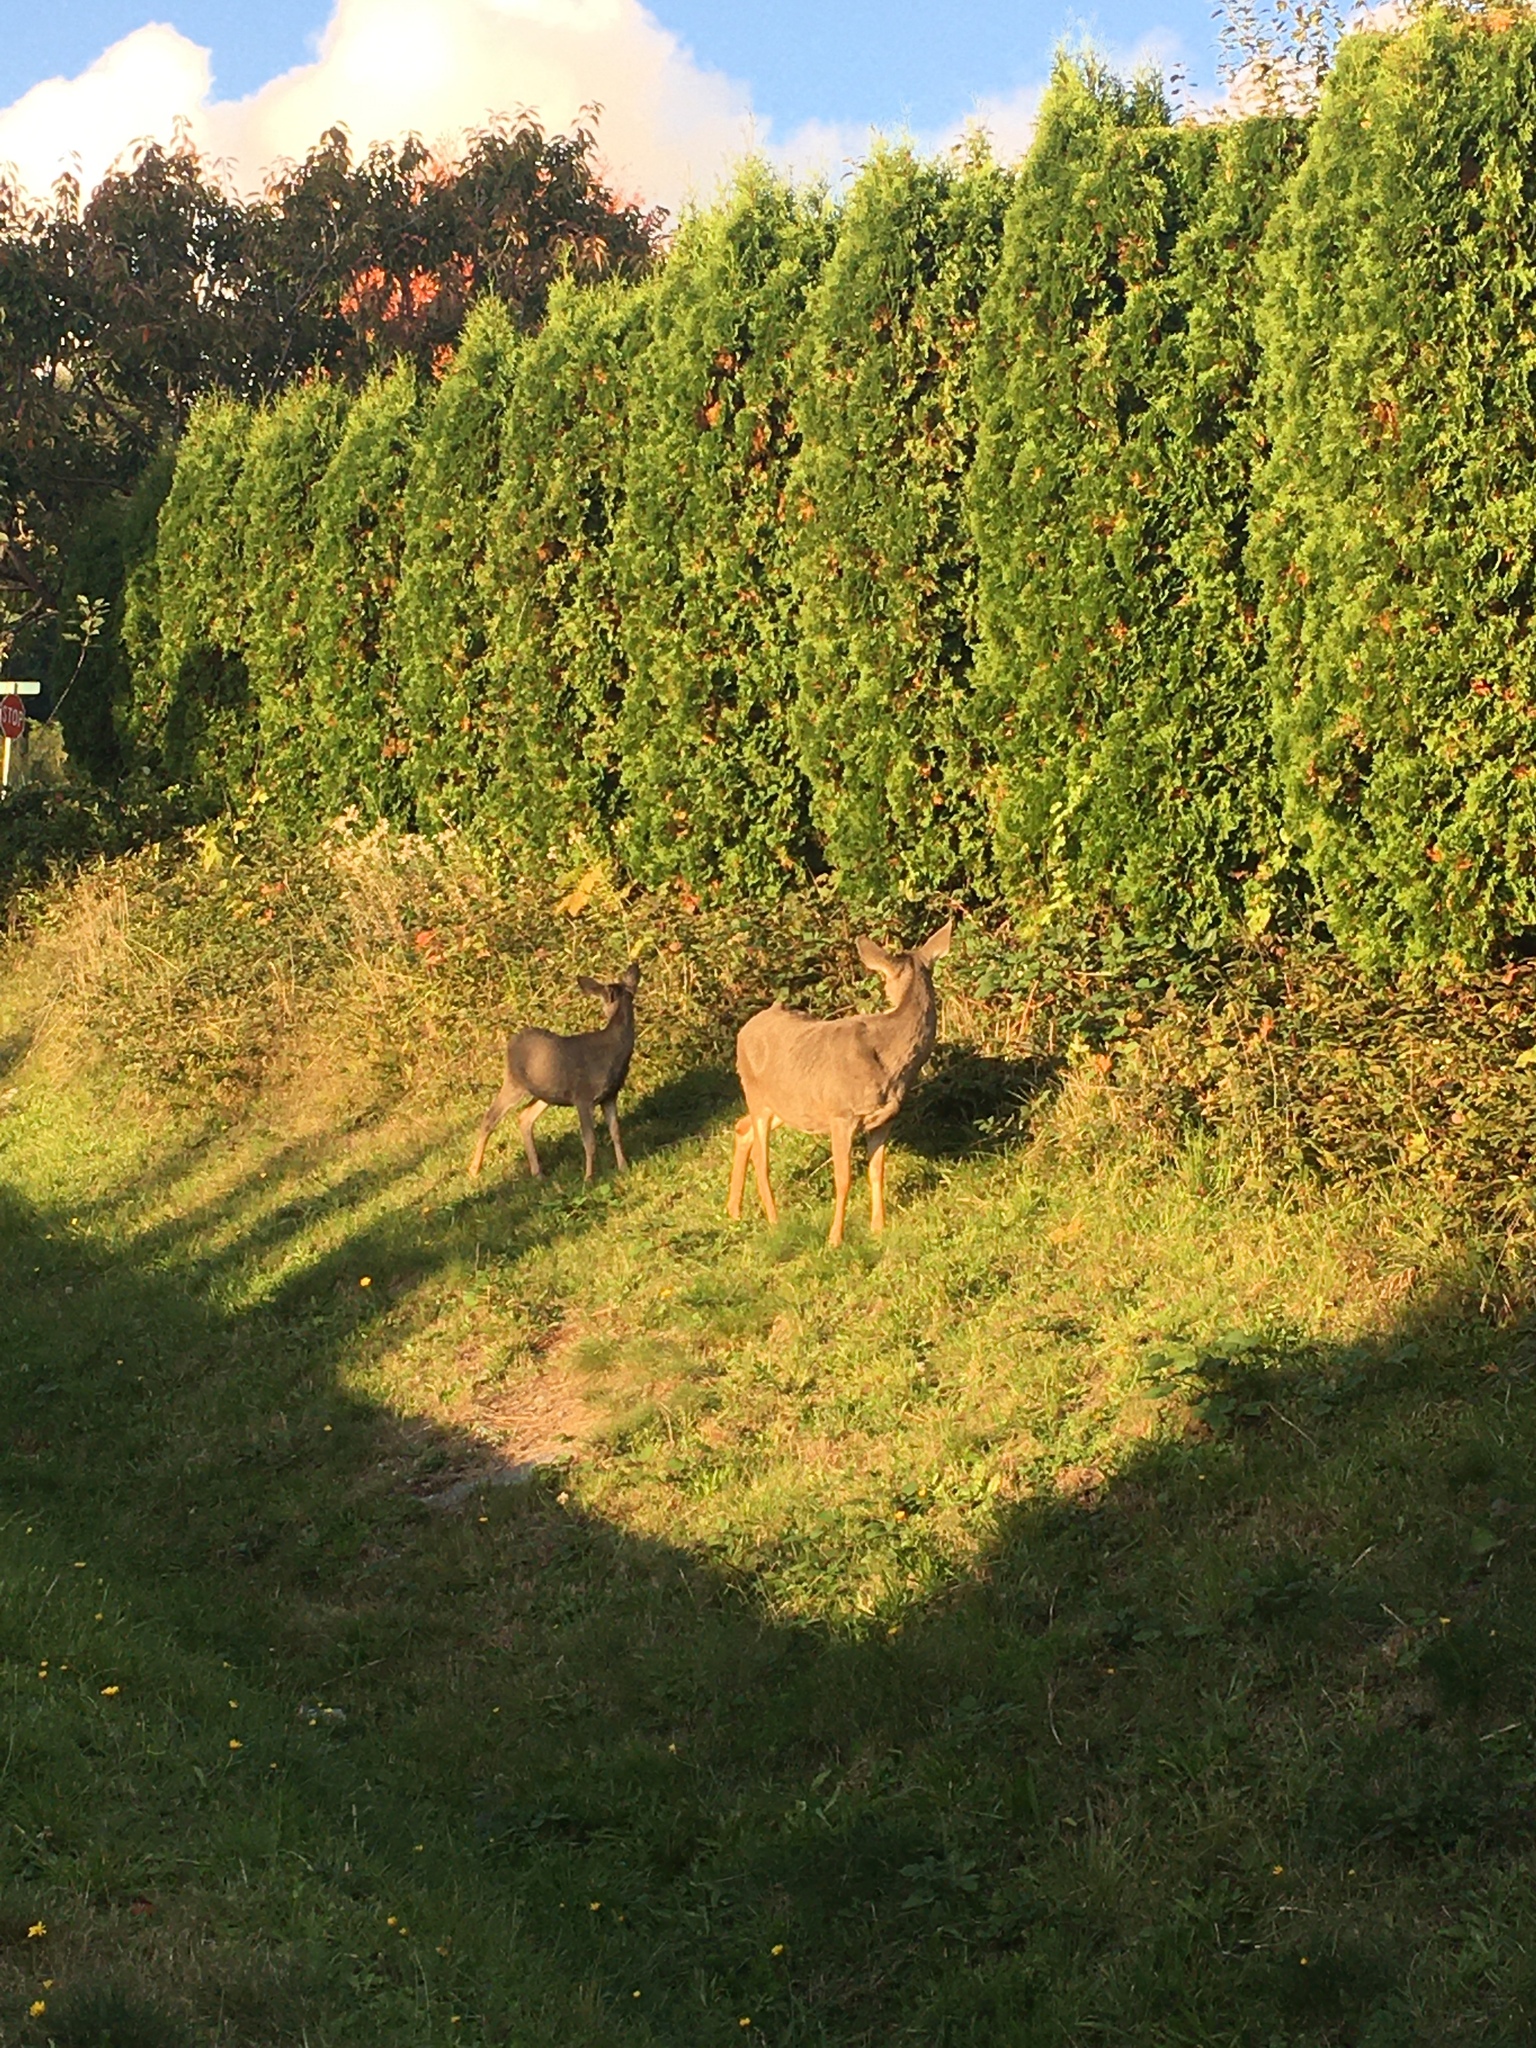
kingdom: Animalia
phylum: Chordata
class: Mammalia
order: Artiodactyla
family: Cervidae
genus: Odocoileus
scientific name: Odocoileus hemionus
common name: Mule deer
